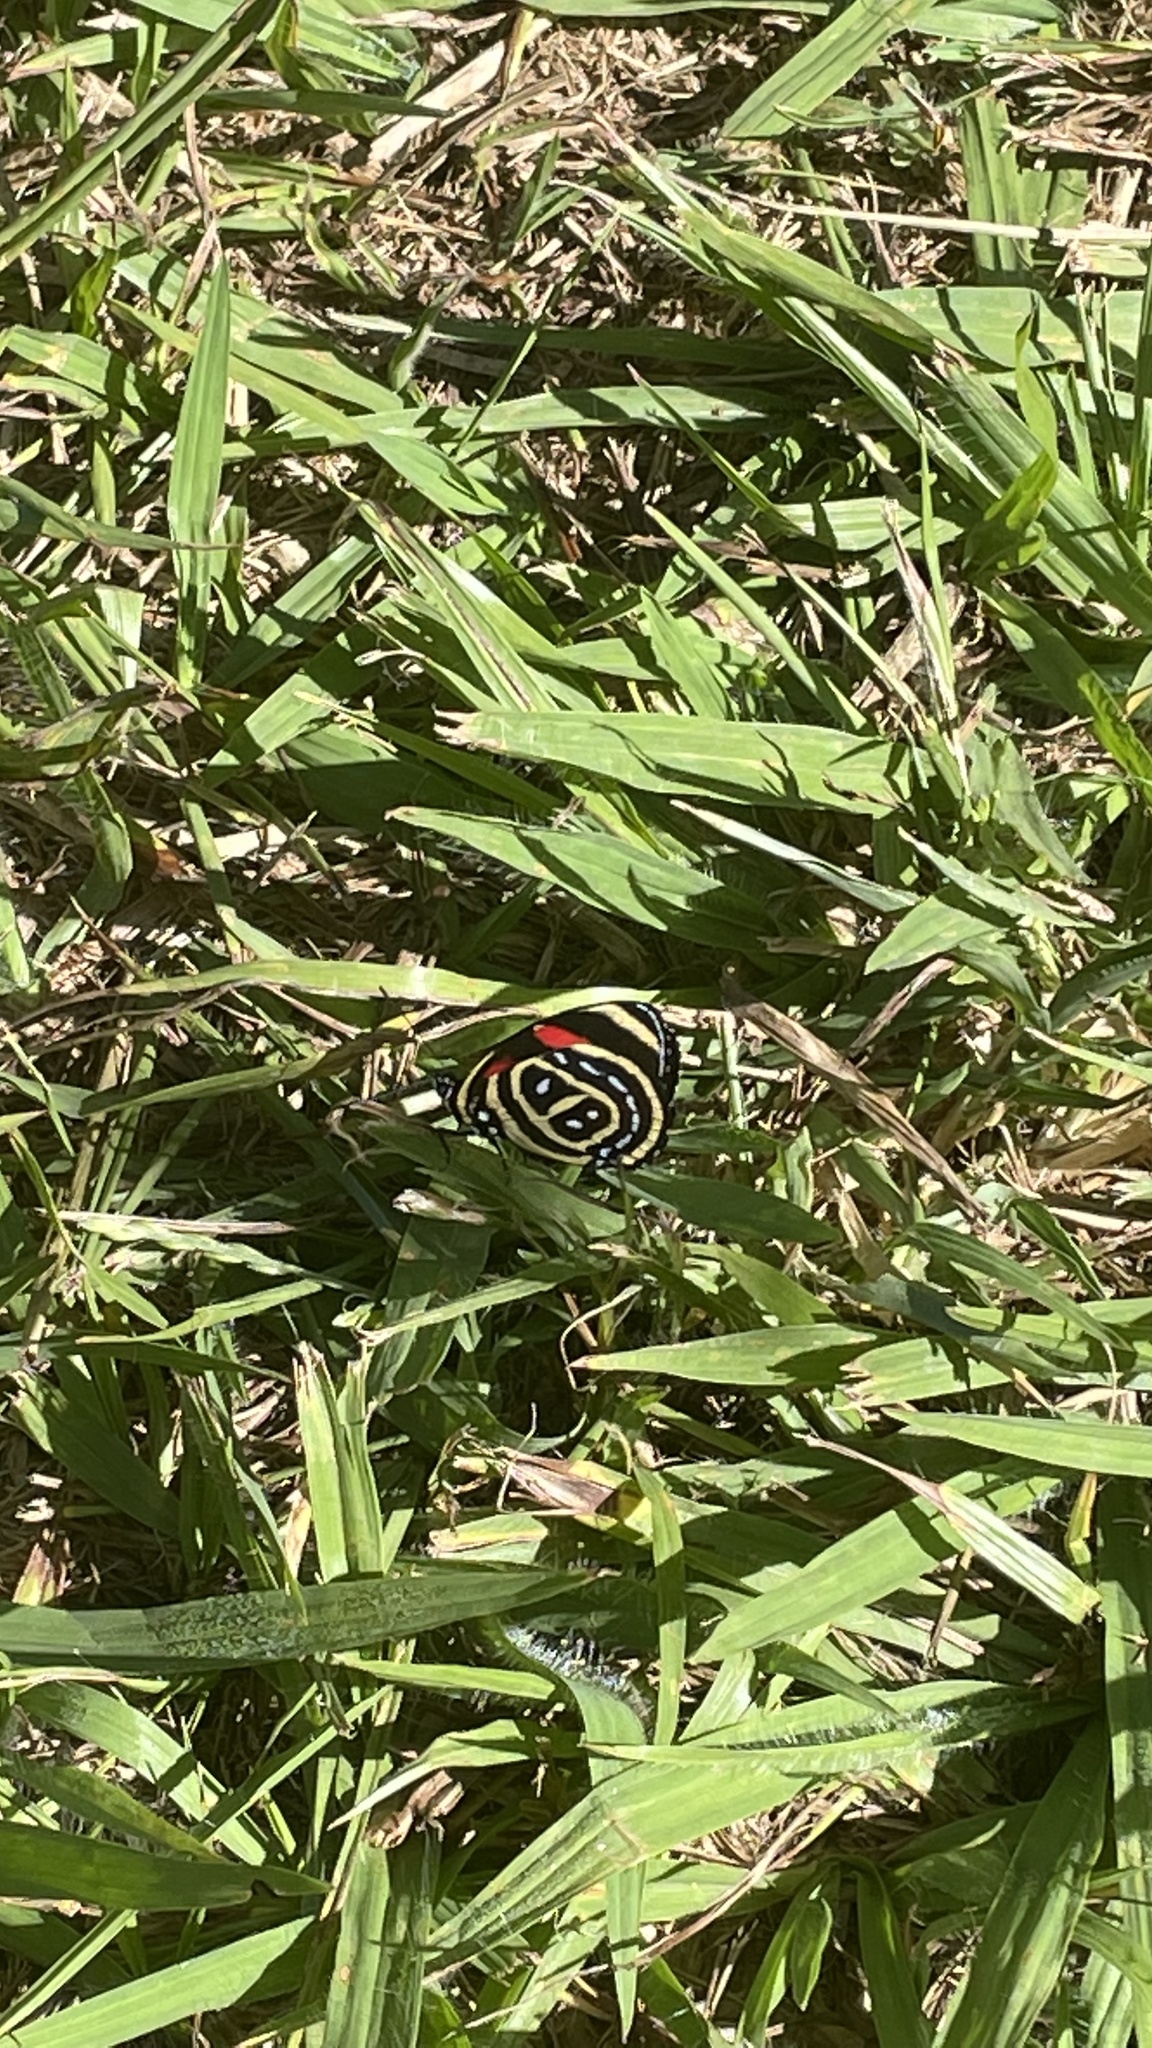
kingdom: Animalia
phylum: Arthropoda
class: Insecta
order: Lepidoptera
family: Nymphalidae
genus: Catagramma
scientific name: Catagramma astarte
